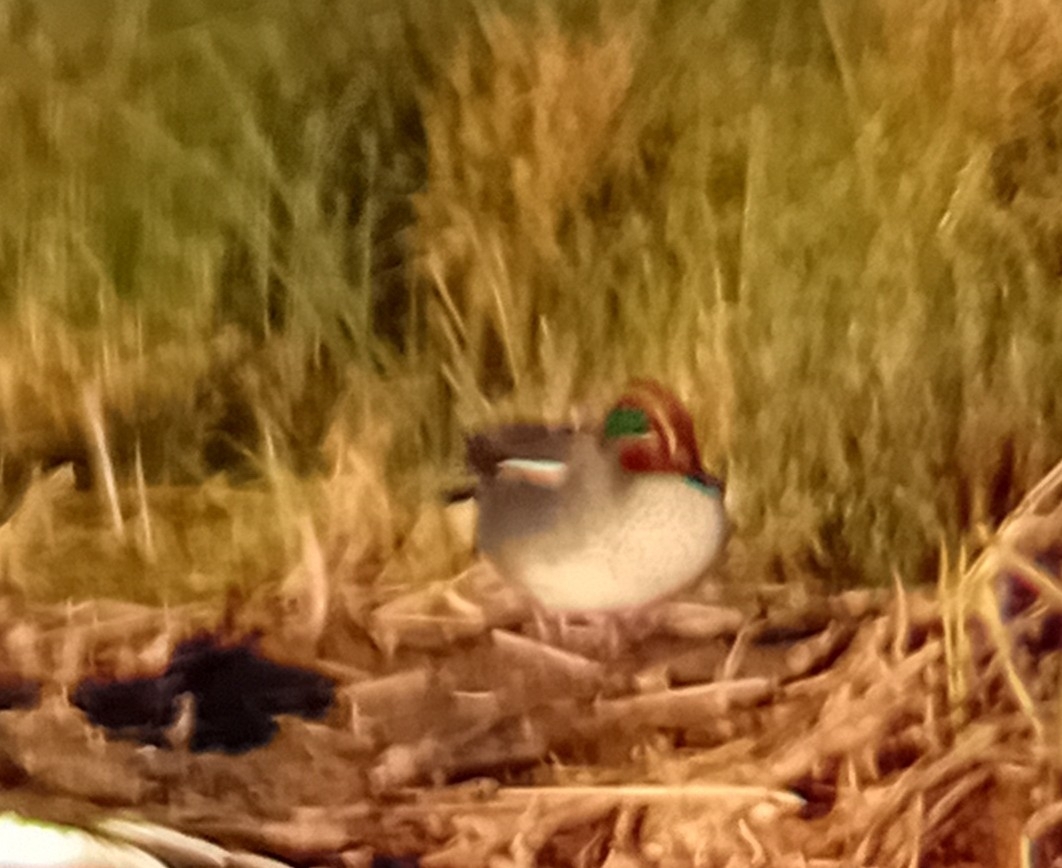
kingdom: Animalia
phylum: Chordata
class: Aves
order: Anseriformes
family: Anatidae
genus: Anas
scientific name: Anas crecca
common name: Eurasian teal
